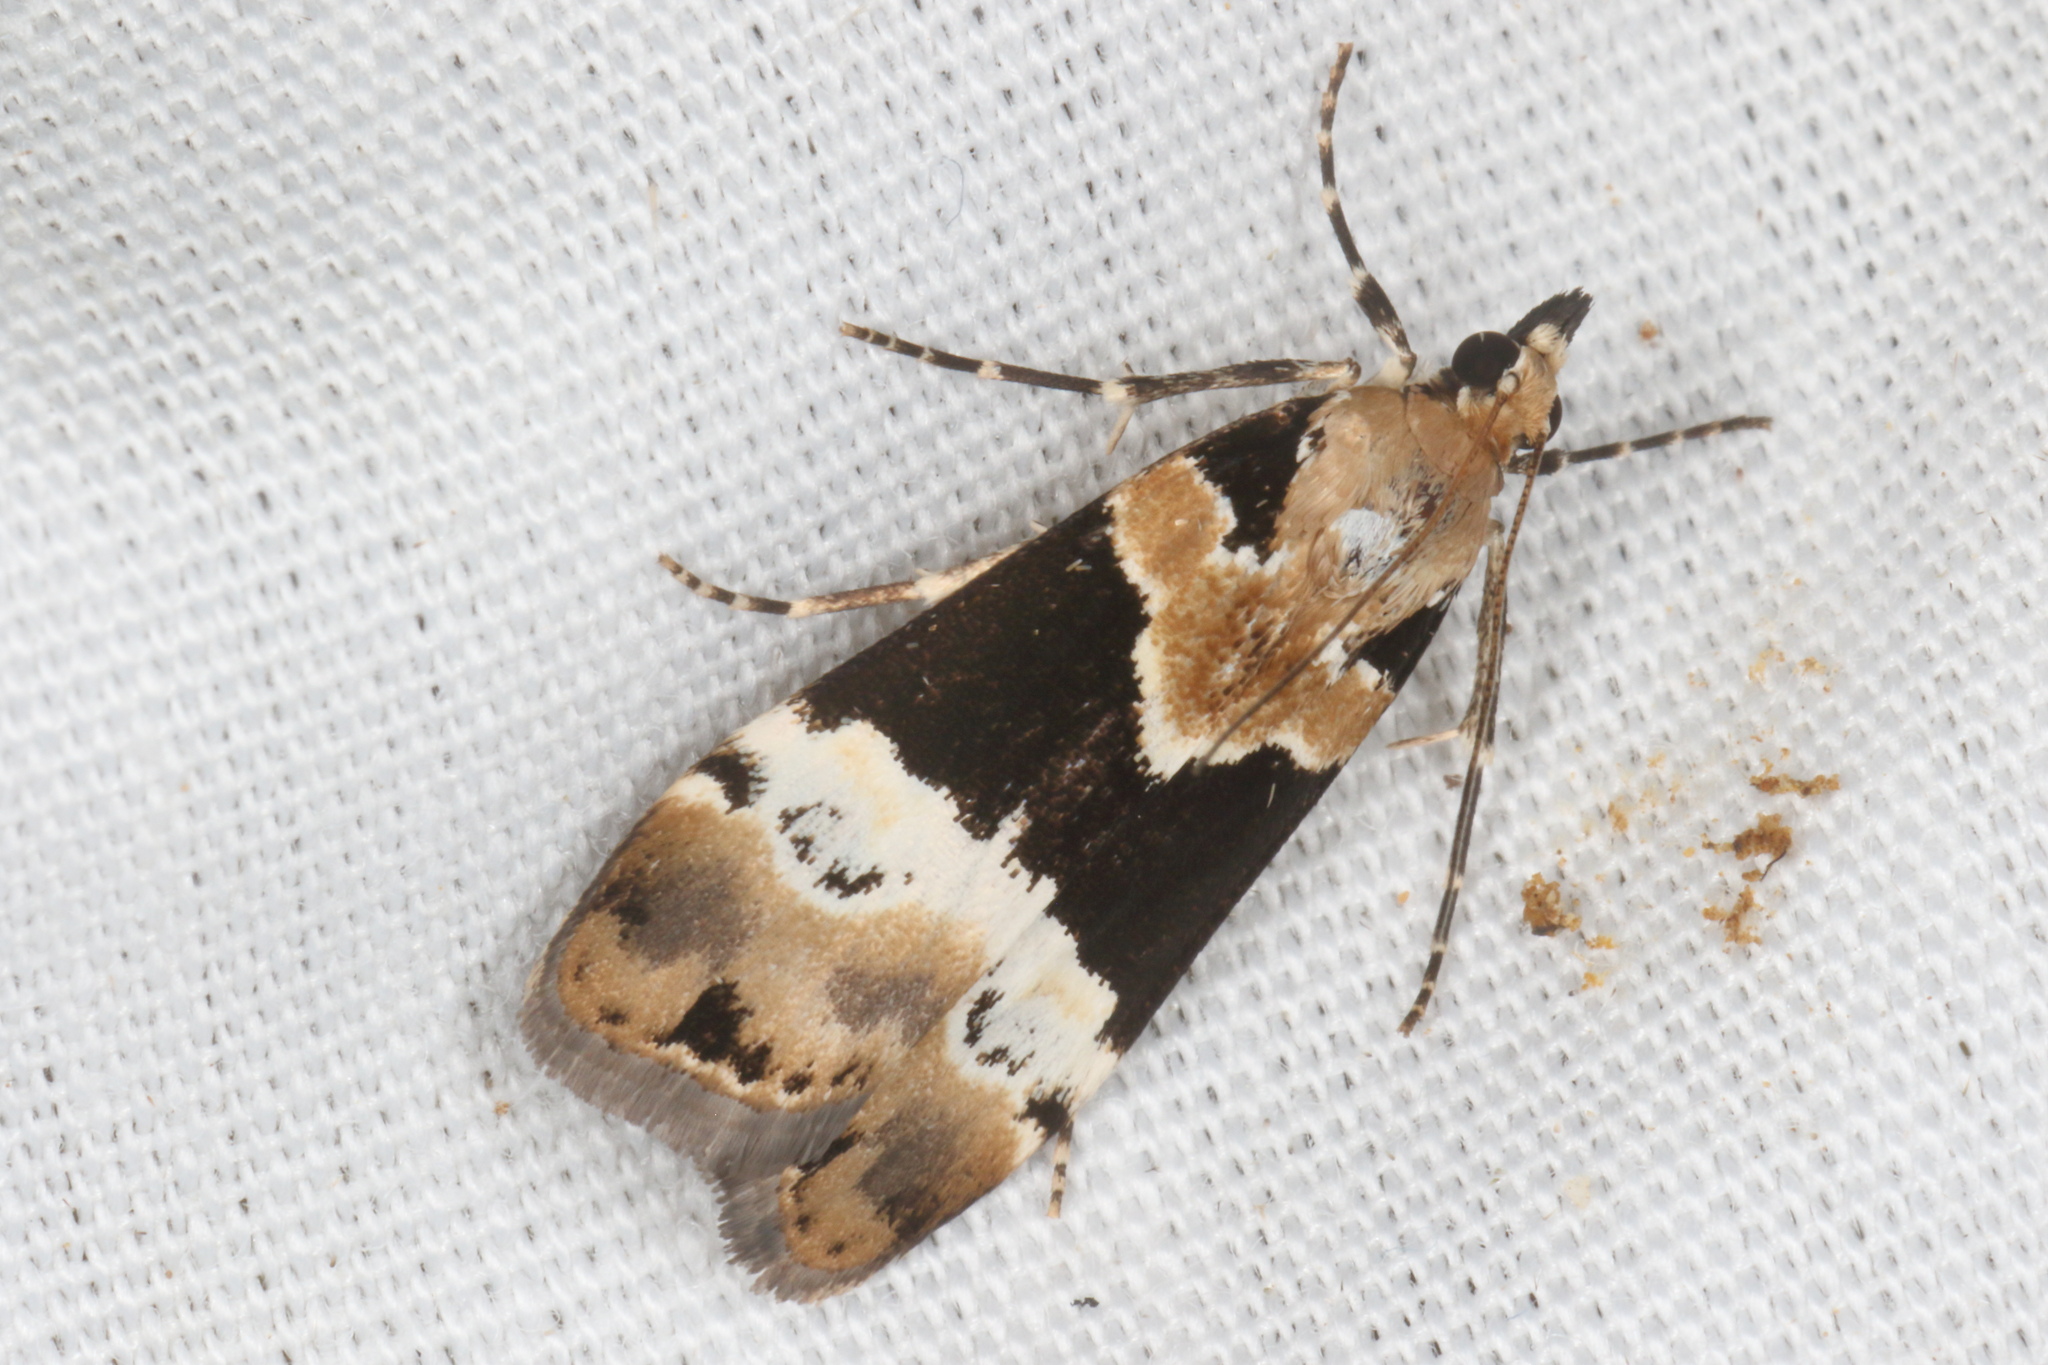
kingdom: Animalia
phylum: Arthropoda
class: Insecta
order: Lepidoptera
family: Crambidae
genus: Eudonia
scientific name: Eudonia aspidota
